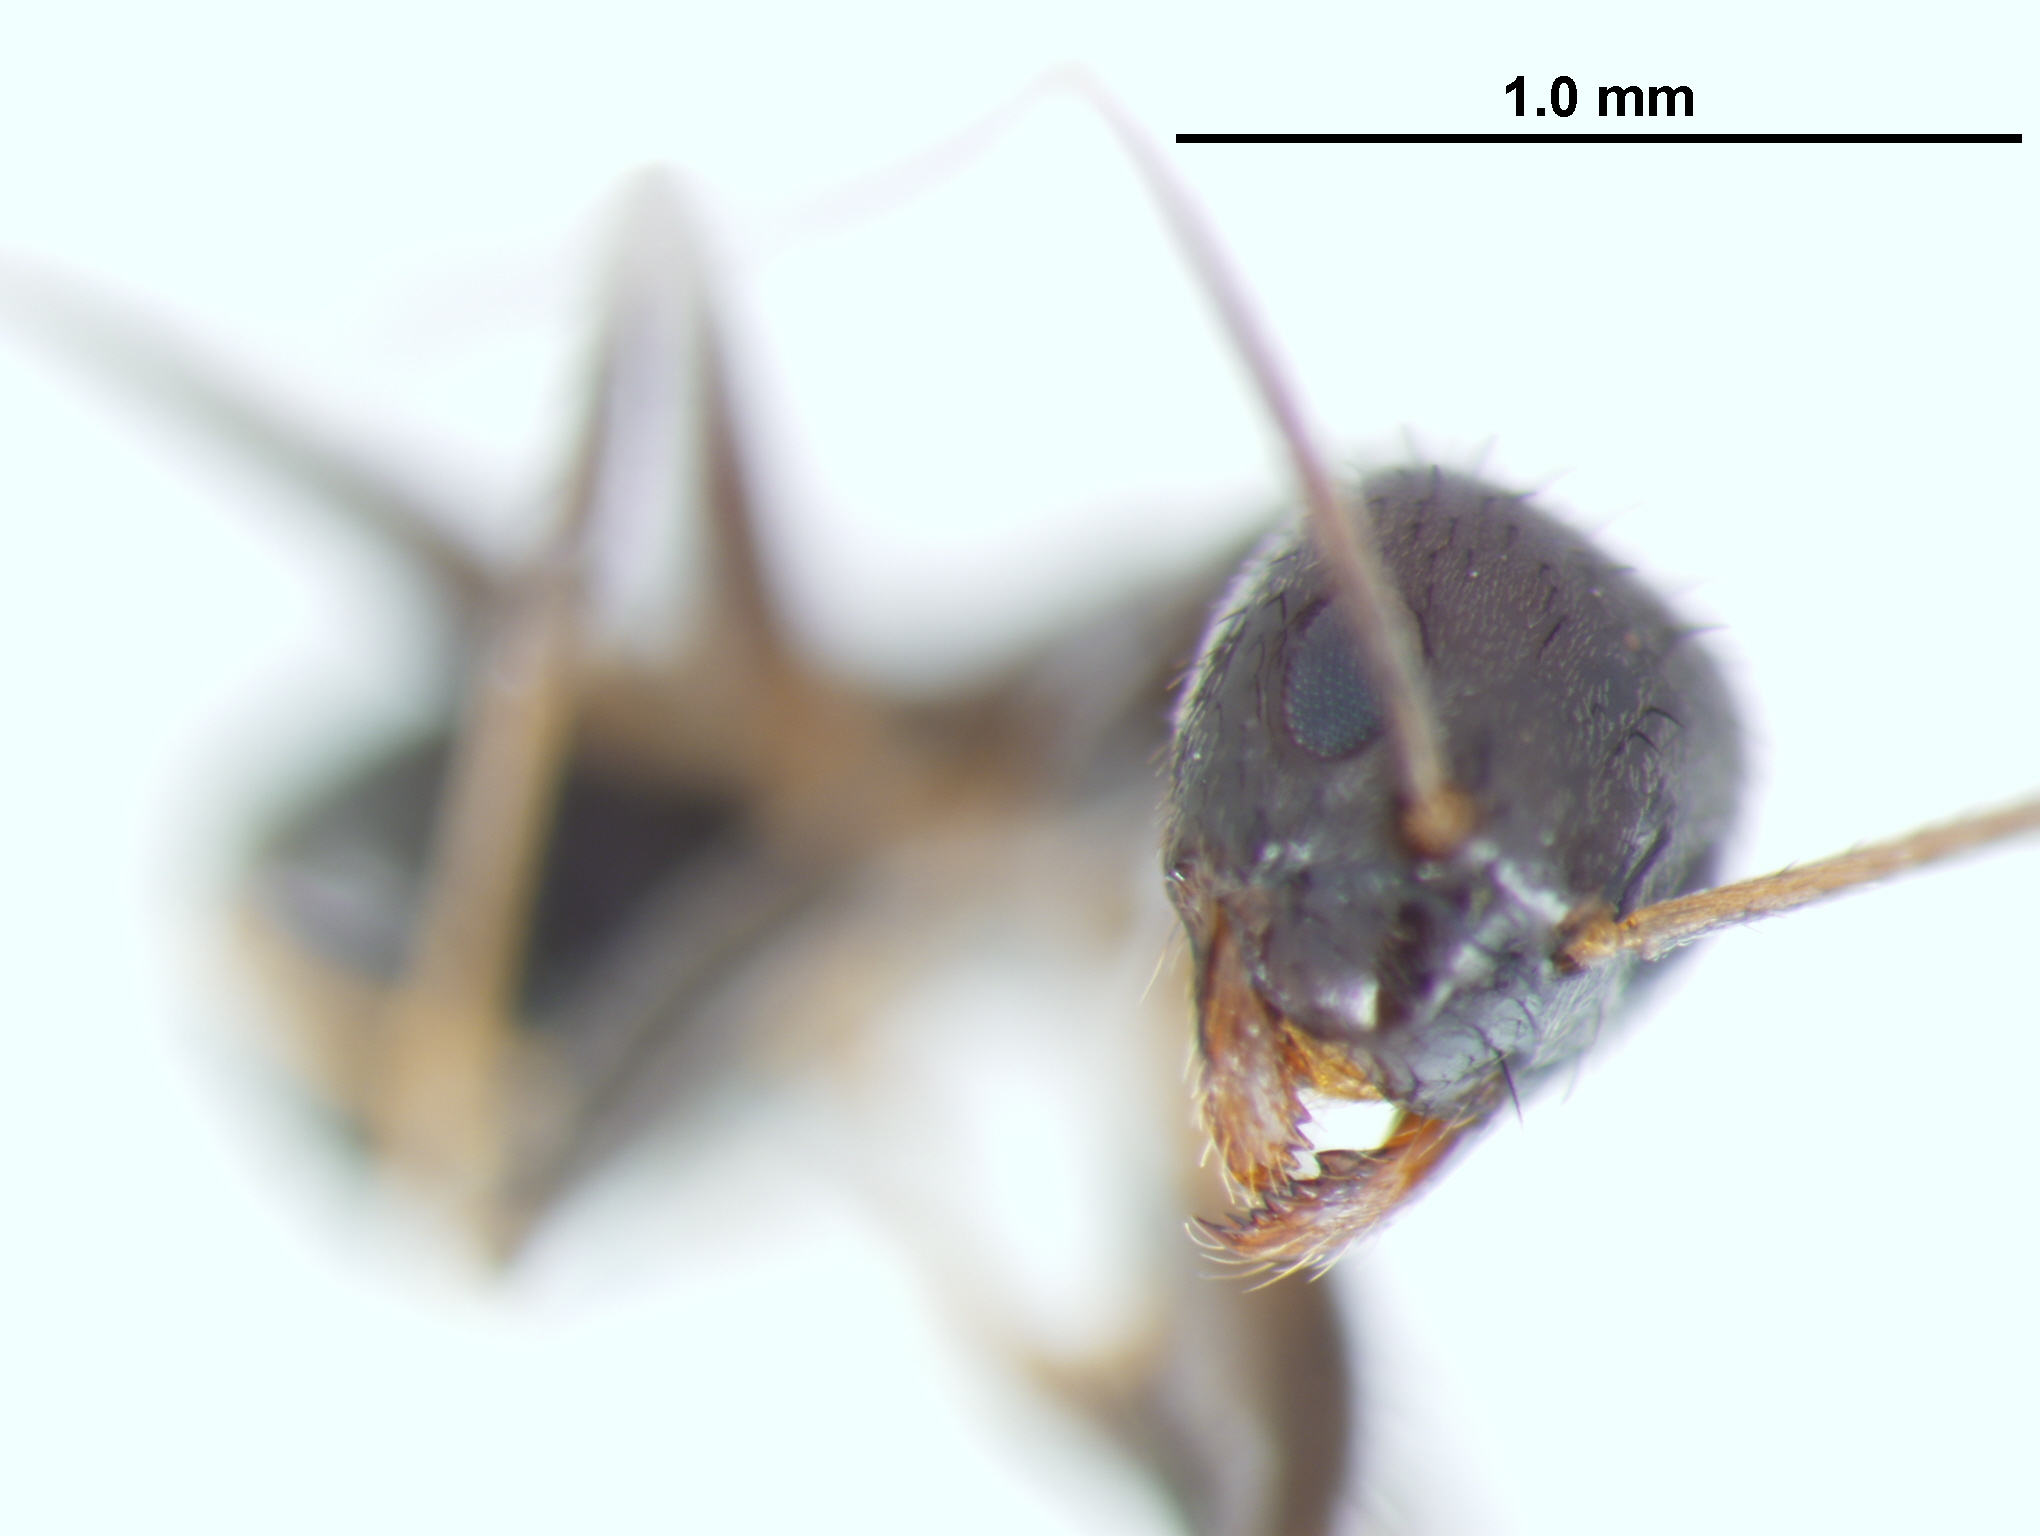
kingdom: Animalia
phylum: Arthropoda
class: Insecta
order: Hymenoptera
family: Formicidae
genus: Paratrechina
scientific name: Paratrechina bourbonica
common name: Ant
